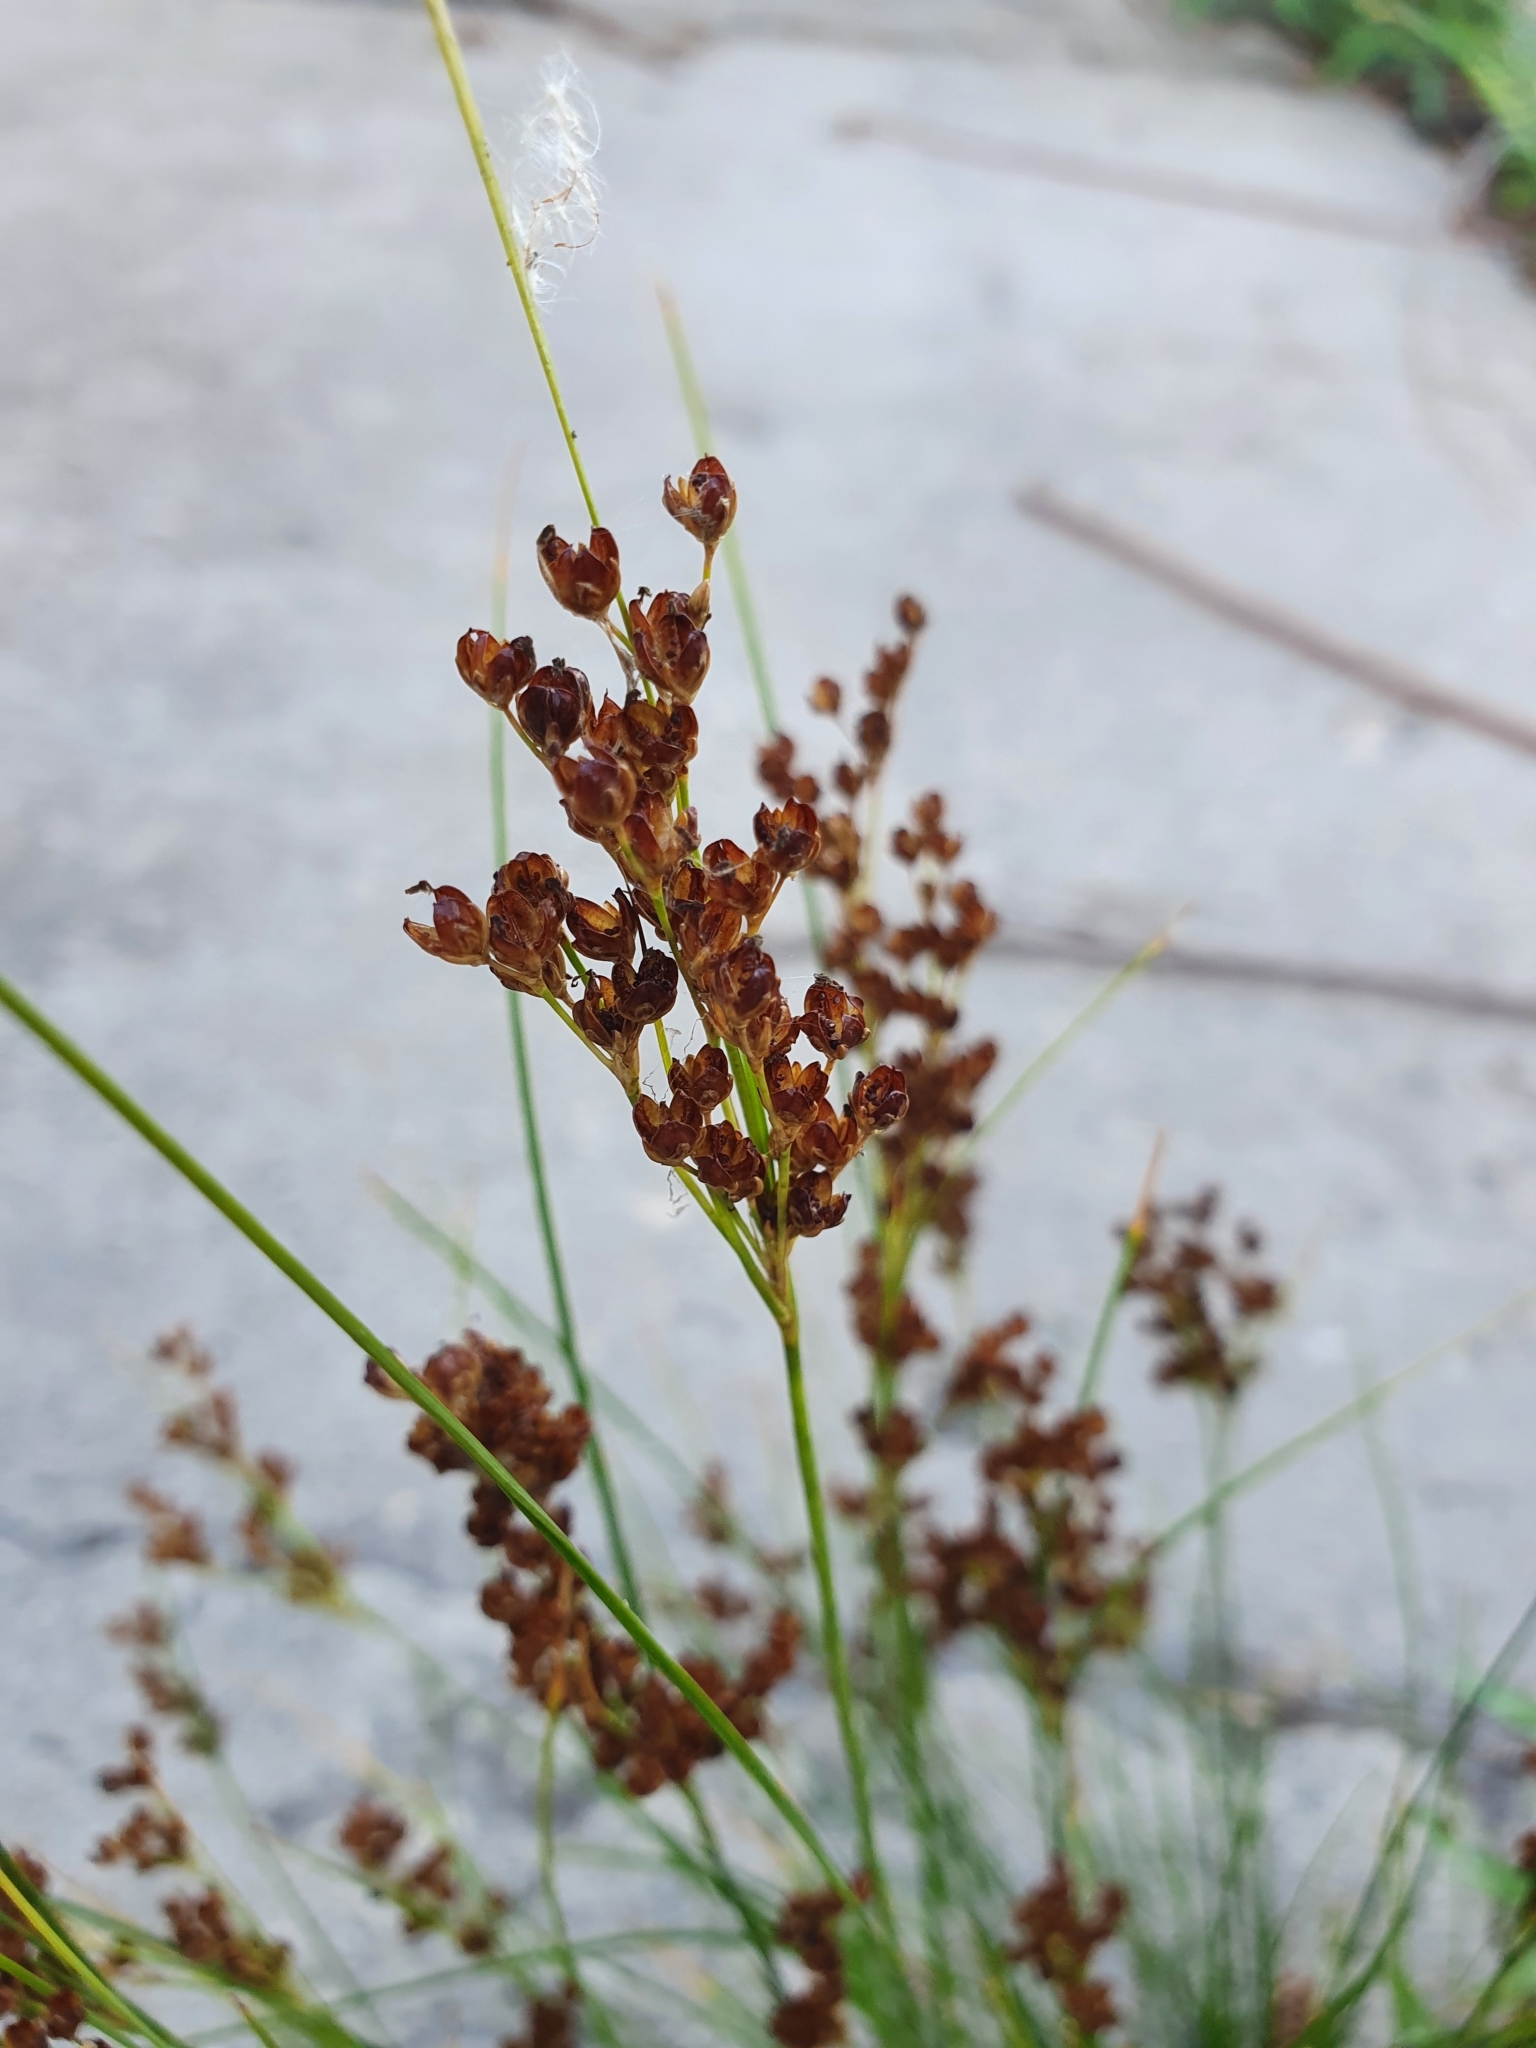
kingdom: Plantae
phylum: Tracheophyta
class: Liliopsida
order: Poales
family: Juncaceae
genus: Juncus
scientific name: Juncus compressus
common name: Round-fruited rush
